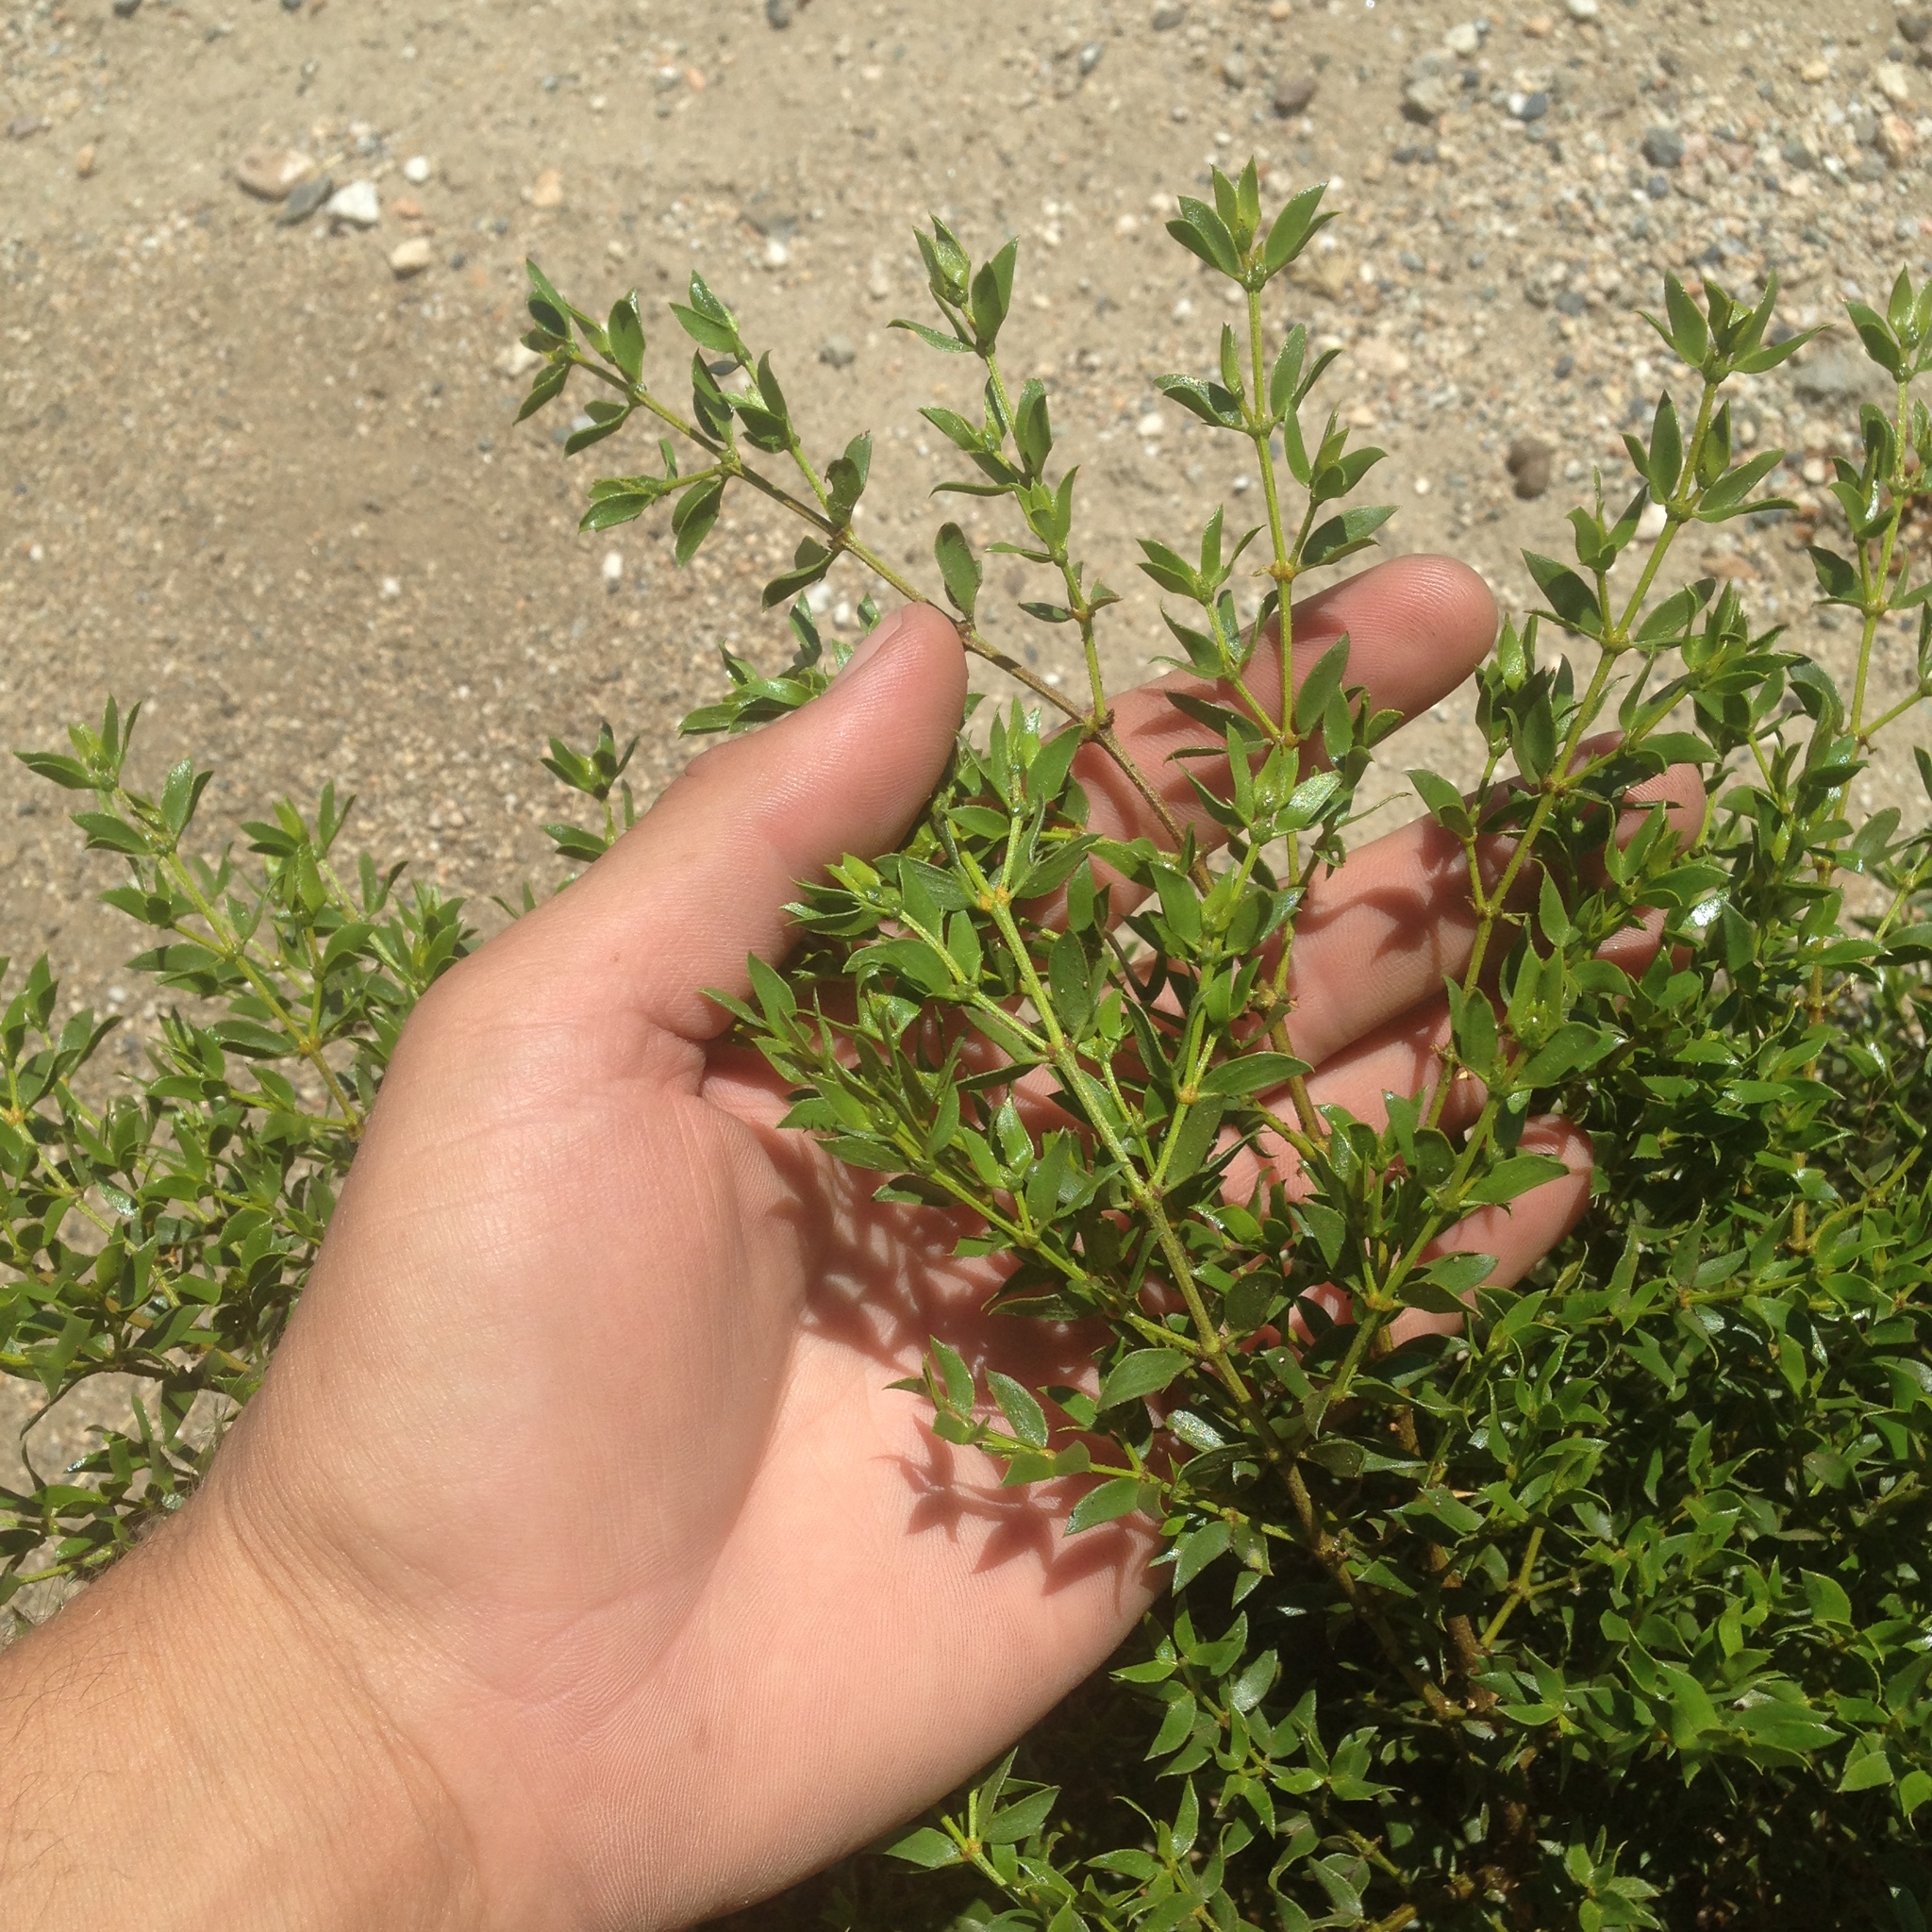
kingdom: Plantae
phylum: Tracheophyta
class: Magnoliopsida
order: Zygophyllales
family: Zygophyllaceae
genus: Larrea
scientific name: Larrea tridentata
